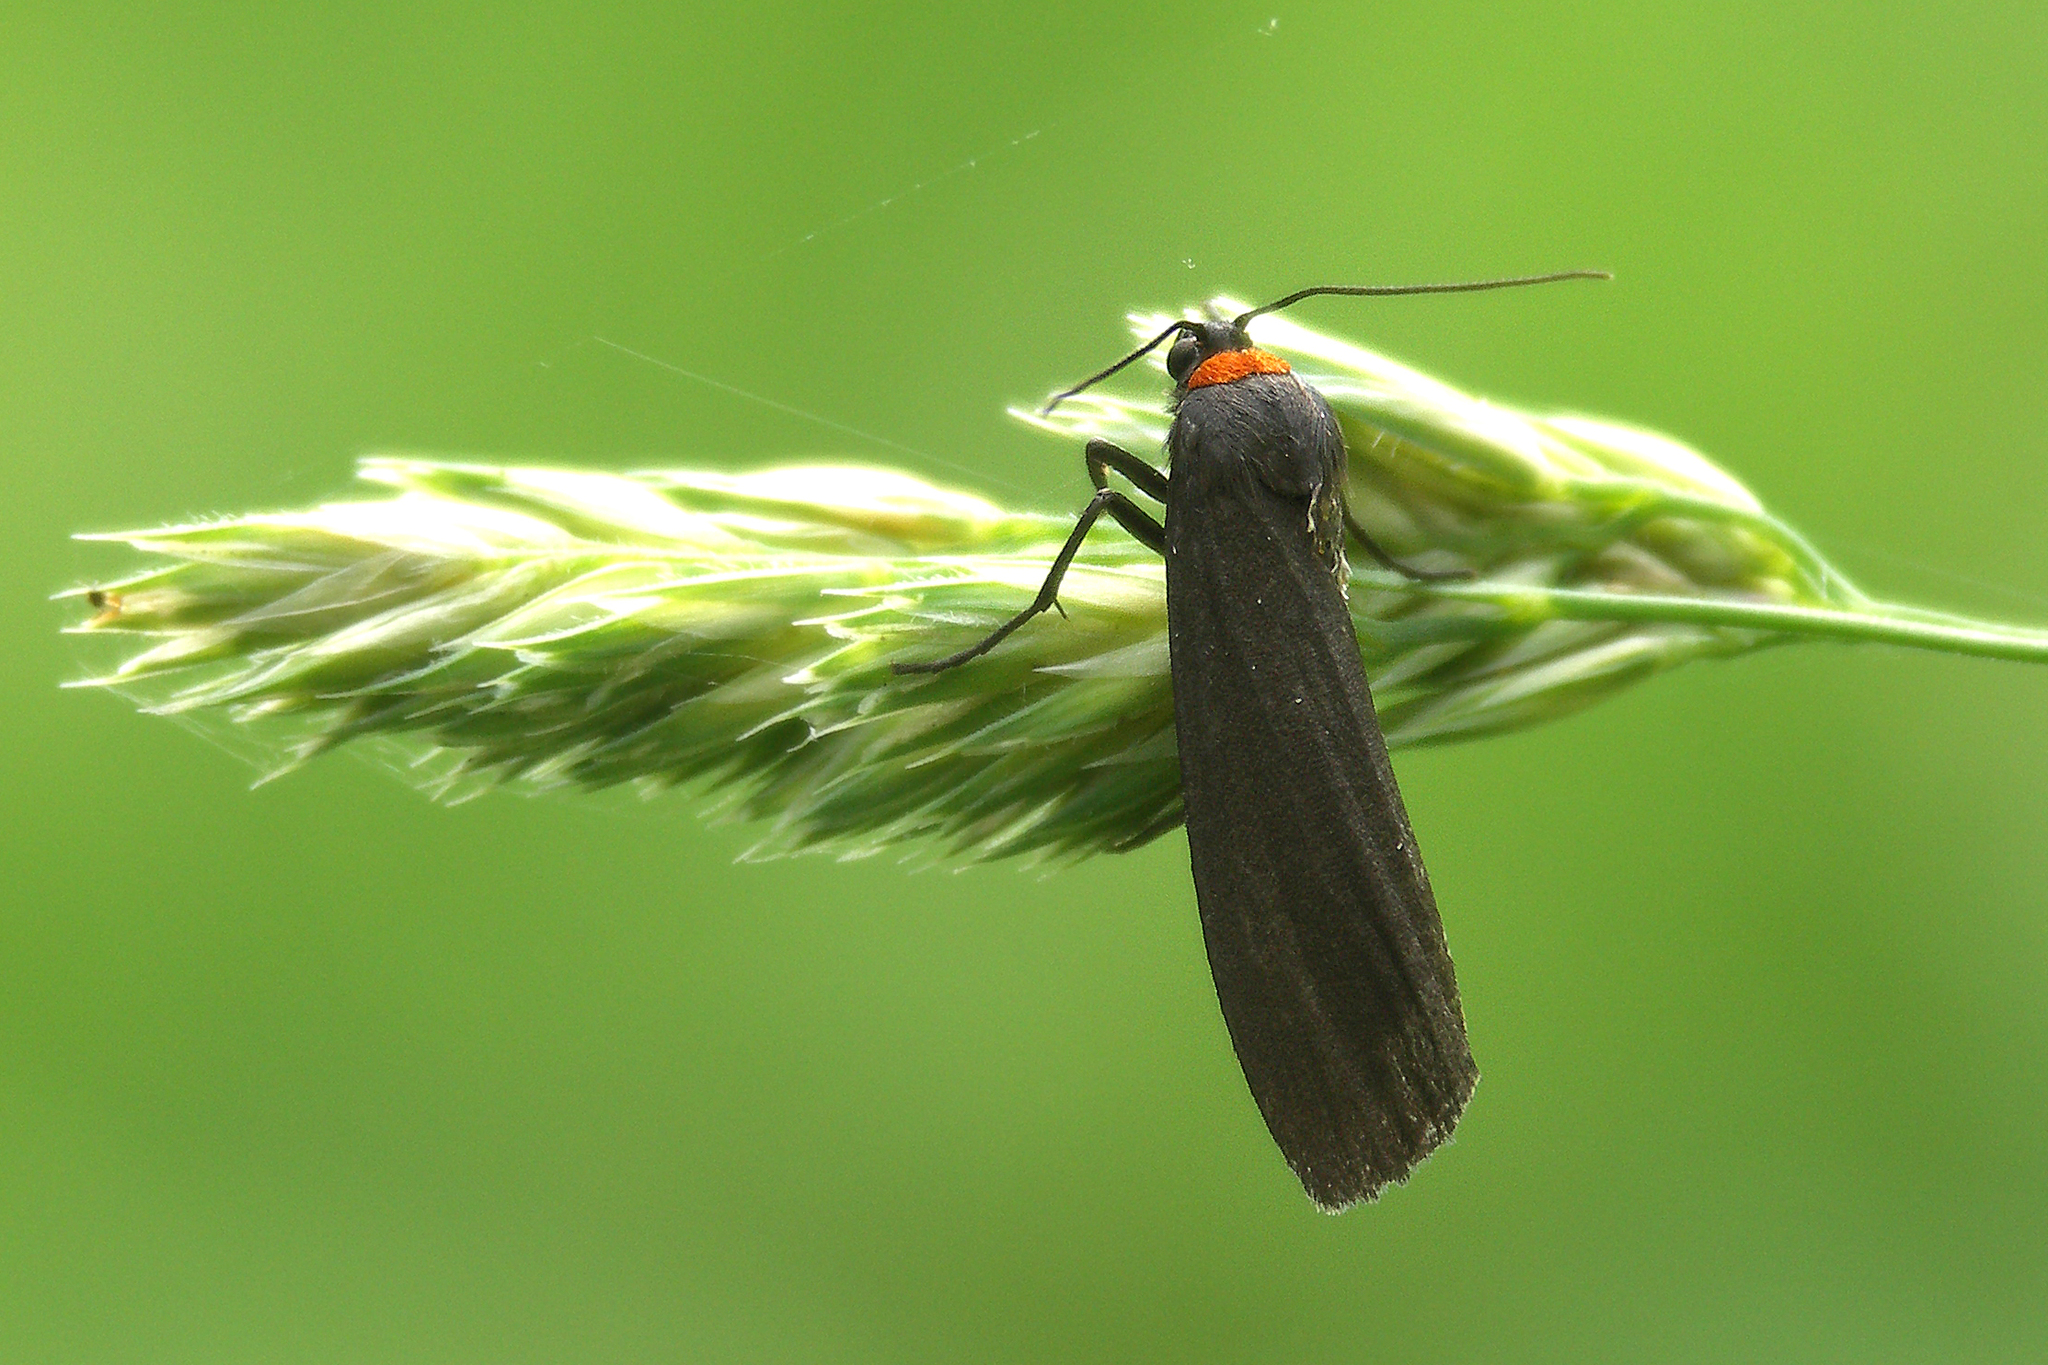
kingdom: Animalia
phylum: Arthropoda
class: Insecta
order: Lepidoptera
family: Erebidae
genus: Atolmis
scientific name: Atolmis rubricollis
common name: Red-necked footman
